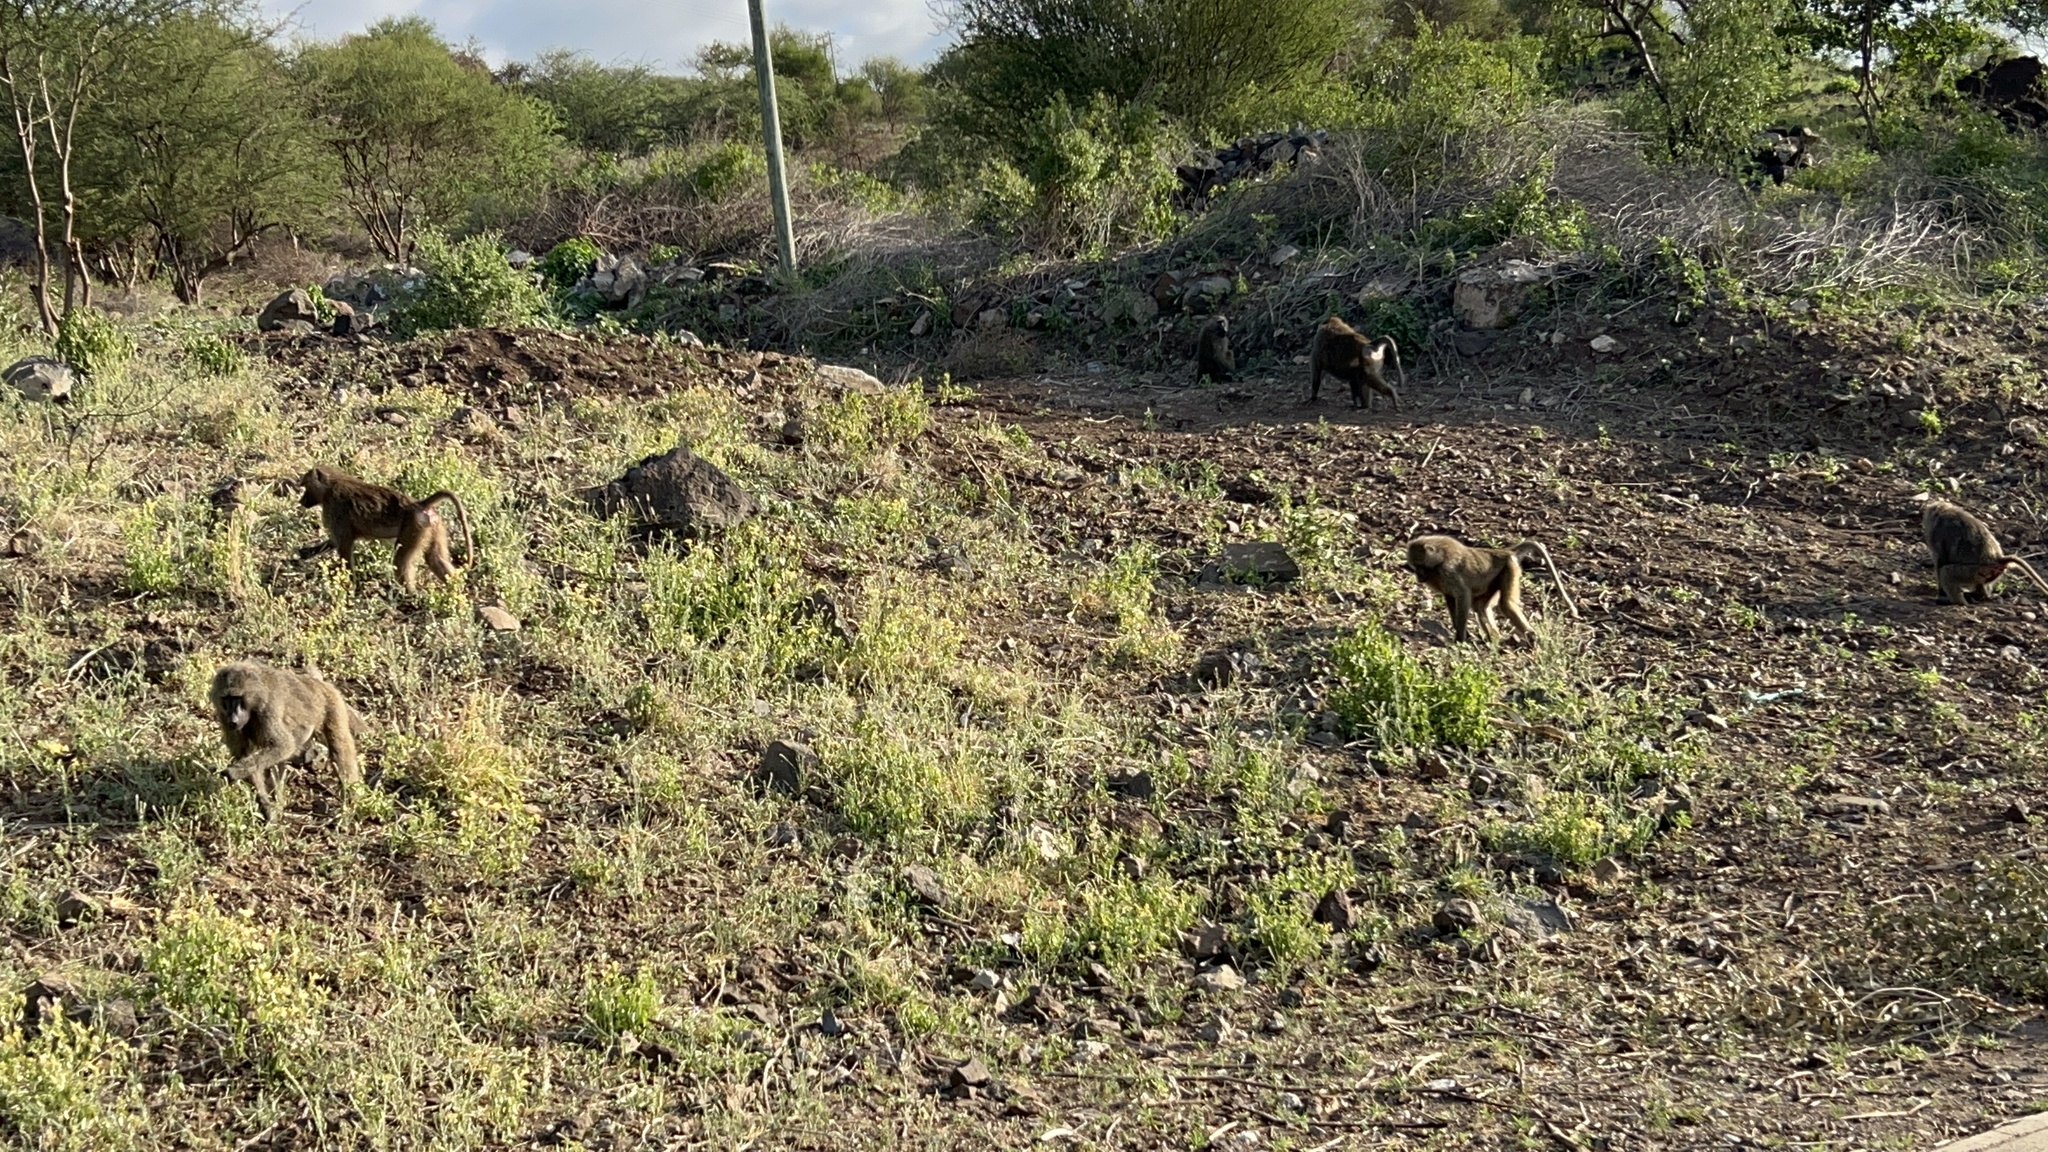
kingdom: Animalia
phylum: Chordata
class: Mammalia
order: Primates
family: Cercopithecidae
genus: Papio
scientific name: Papio anubis
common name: Olive baboon
